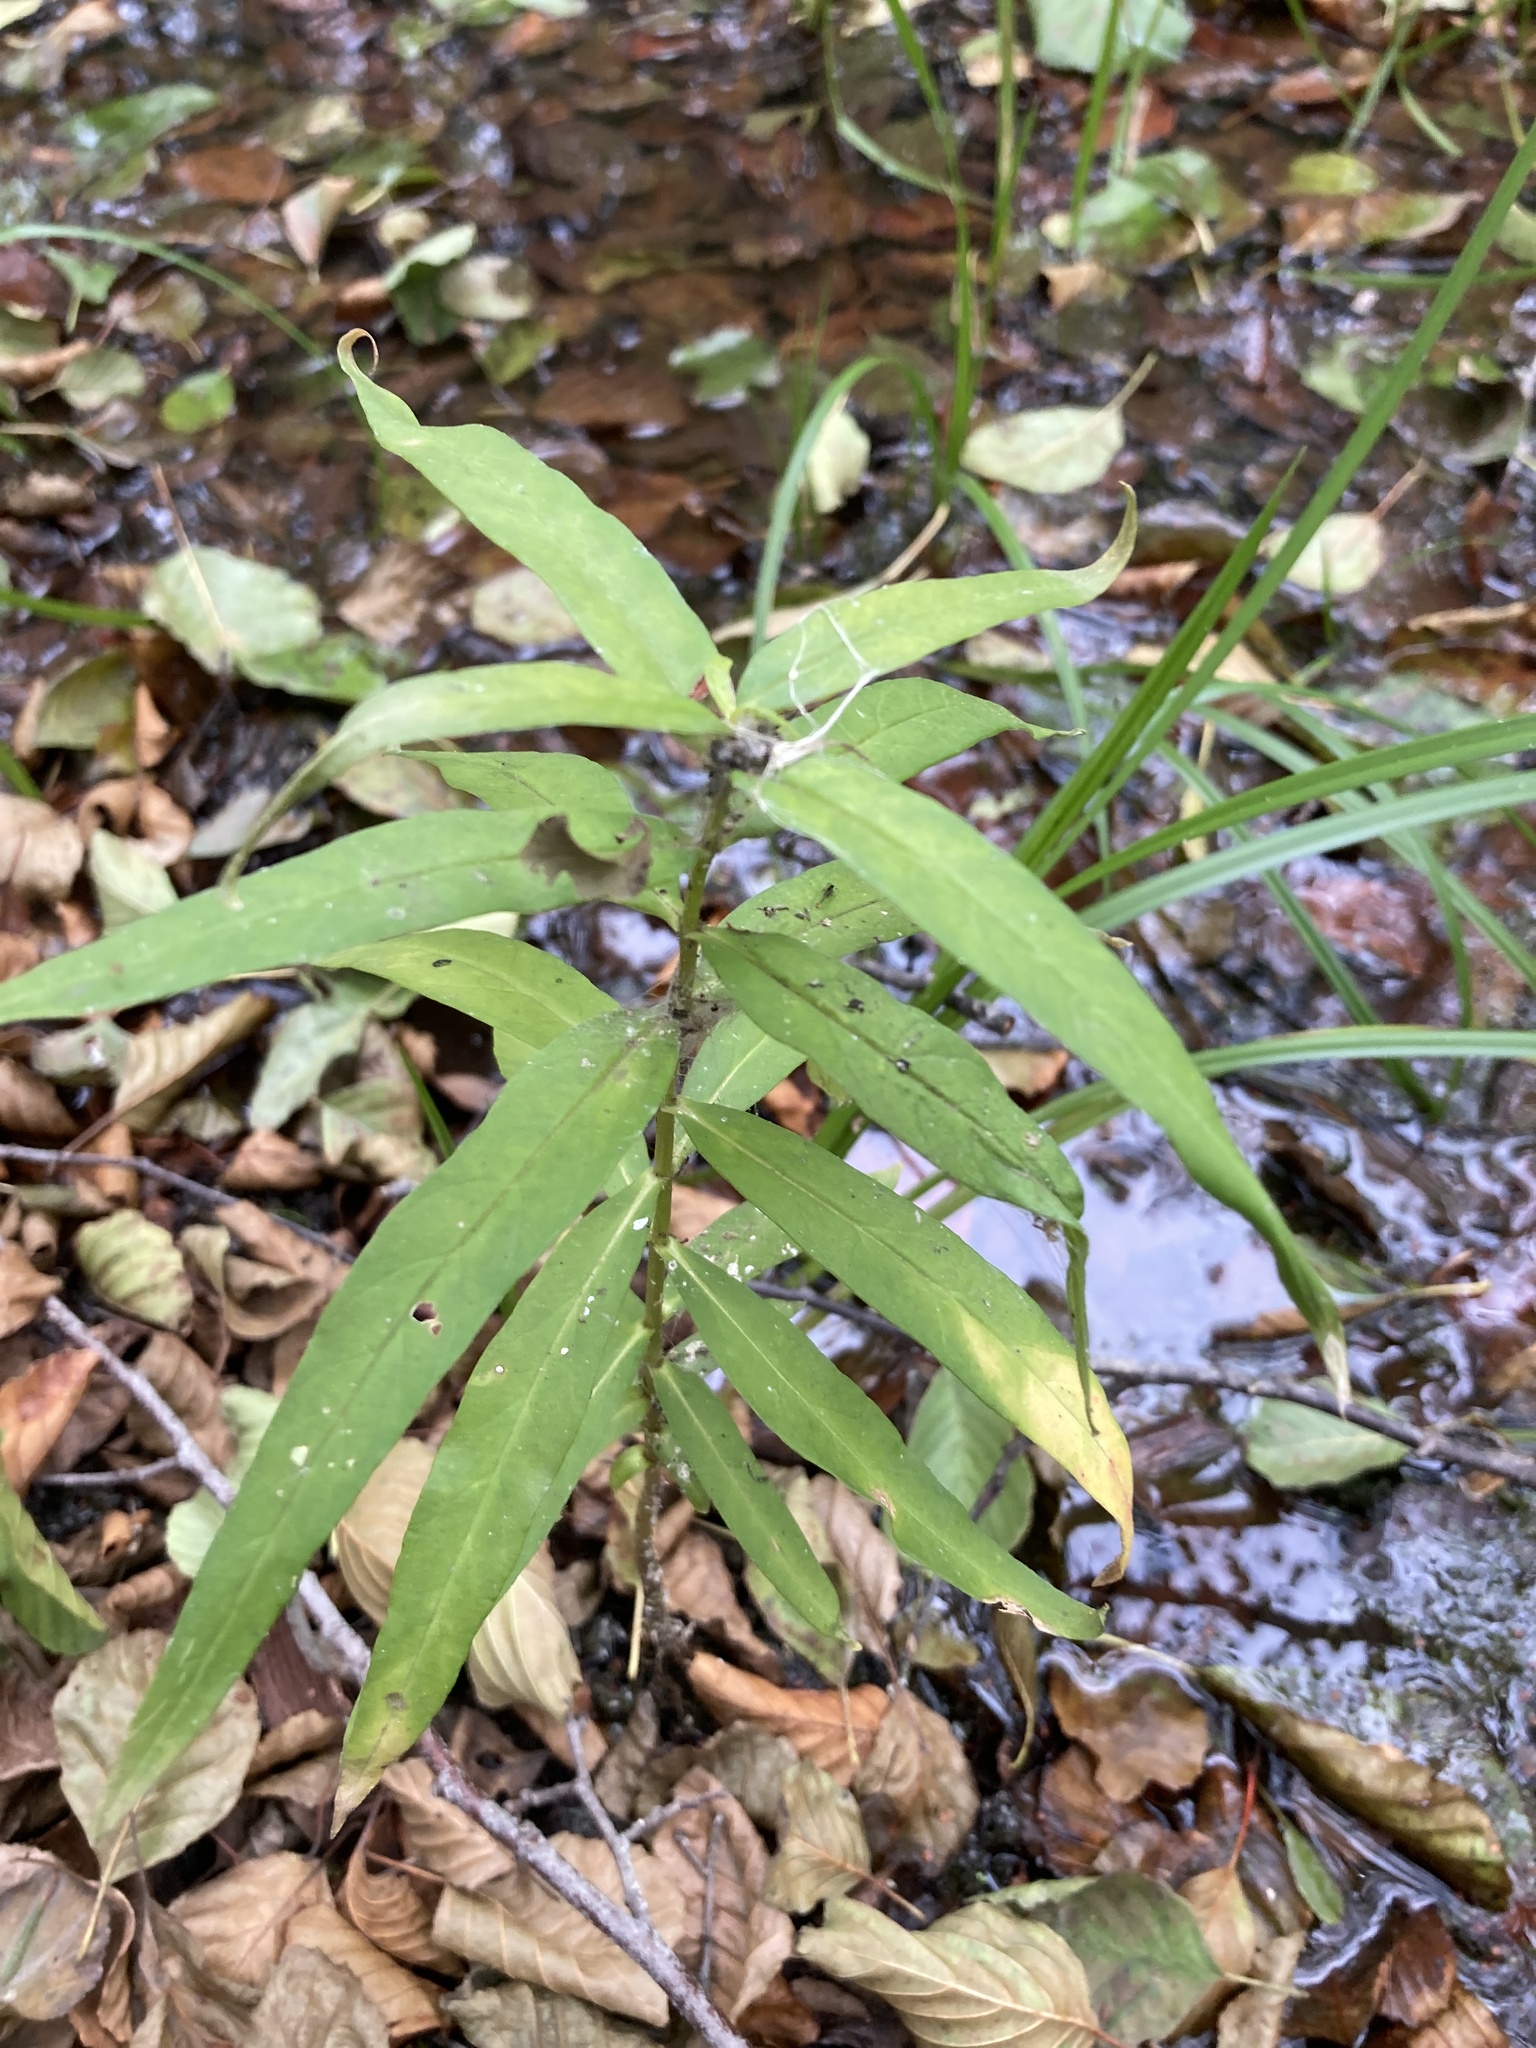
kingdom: Plantae
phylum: Tracheophyta
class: Magnoliopsida
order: Ericales
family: Primulaceae
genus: Lysimachia
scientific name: Lysimachia thyrsiflora
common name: Tufted loosestrife
